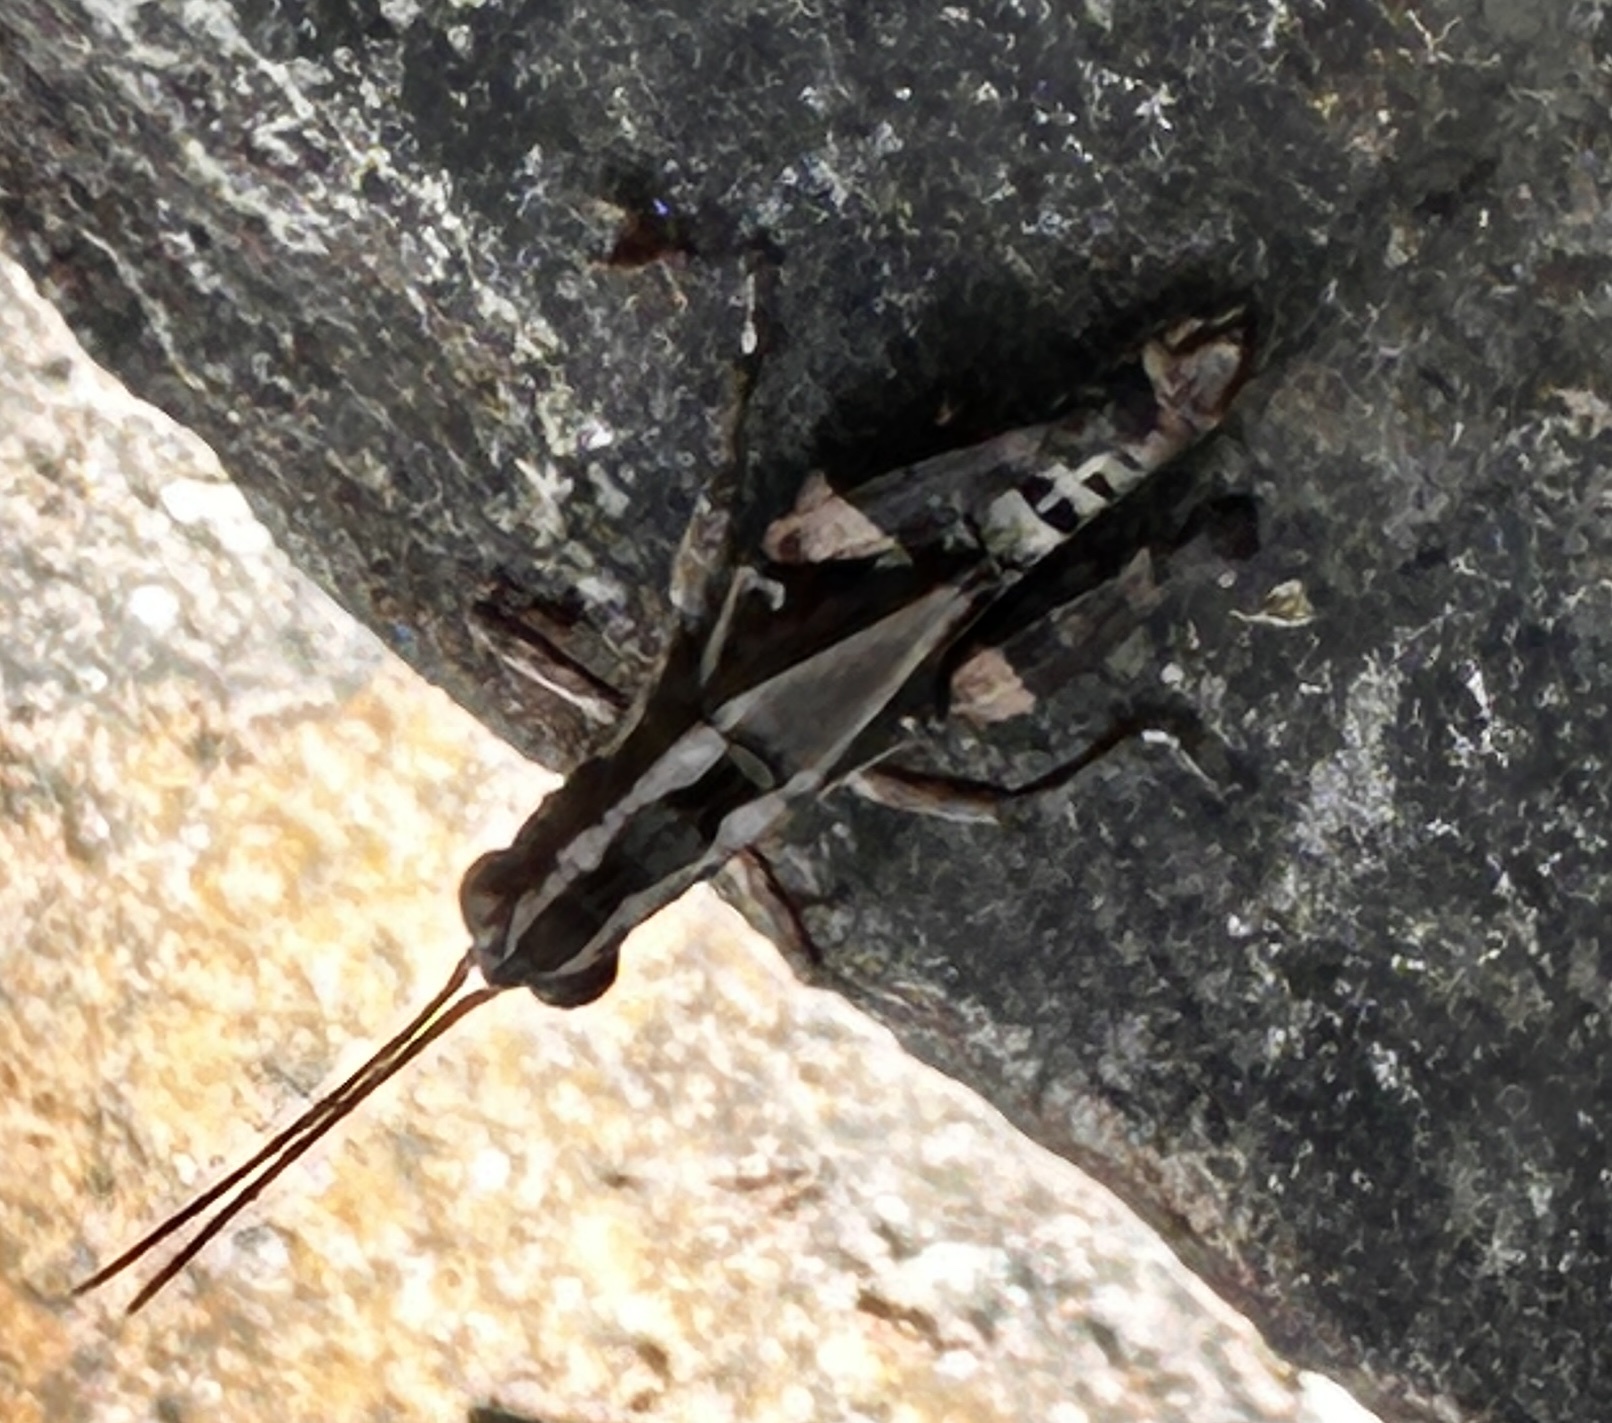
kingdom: Animalia
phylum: Arthropoda
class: Insecta
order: Orthoptera
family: Acrididae
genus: Traulia
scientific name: Traulia ornata
